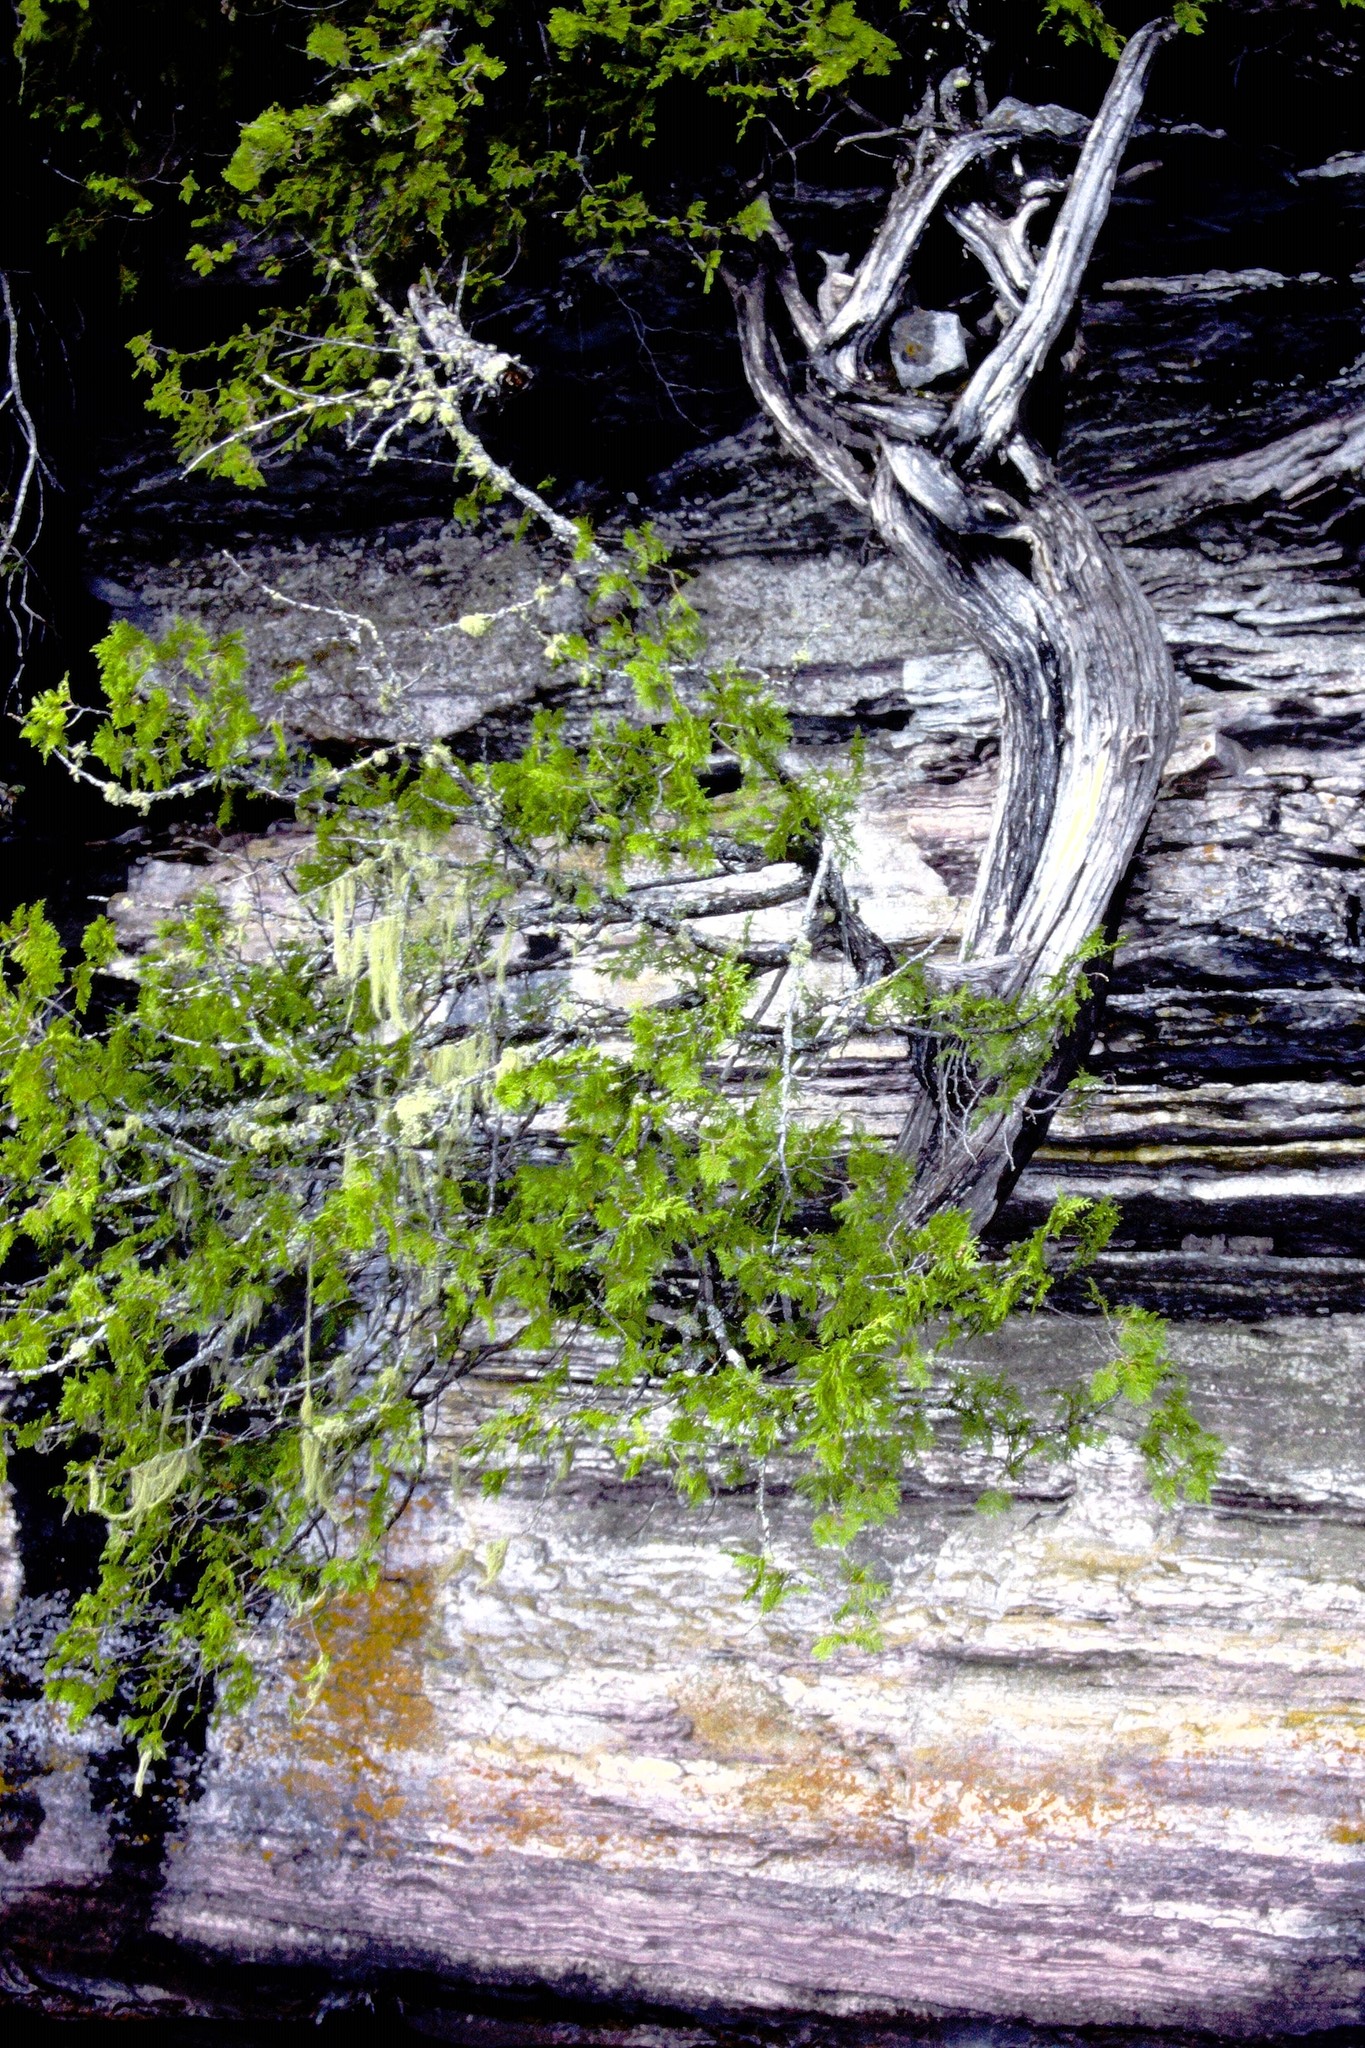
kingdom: Plantae
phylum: Tracheophyta
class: Pinopsida
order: Pinales
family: Cupressaceae
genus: Thuja
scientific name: Thuja occidentalis
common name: Northern white-cedar
